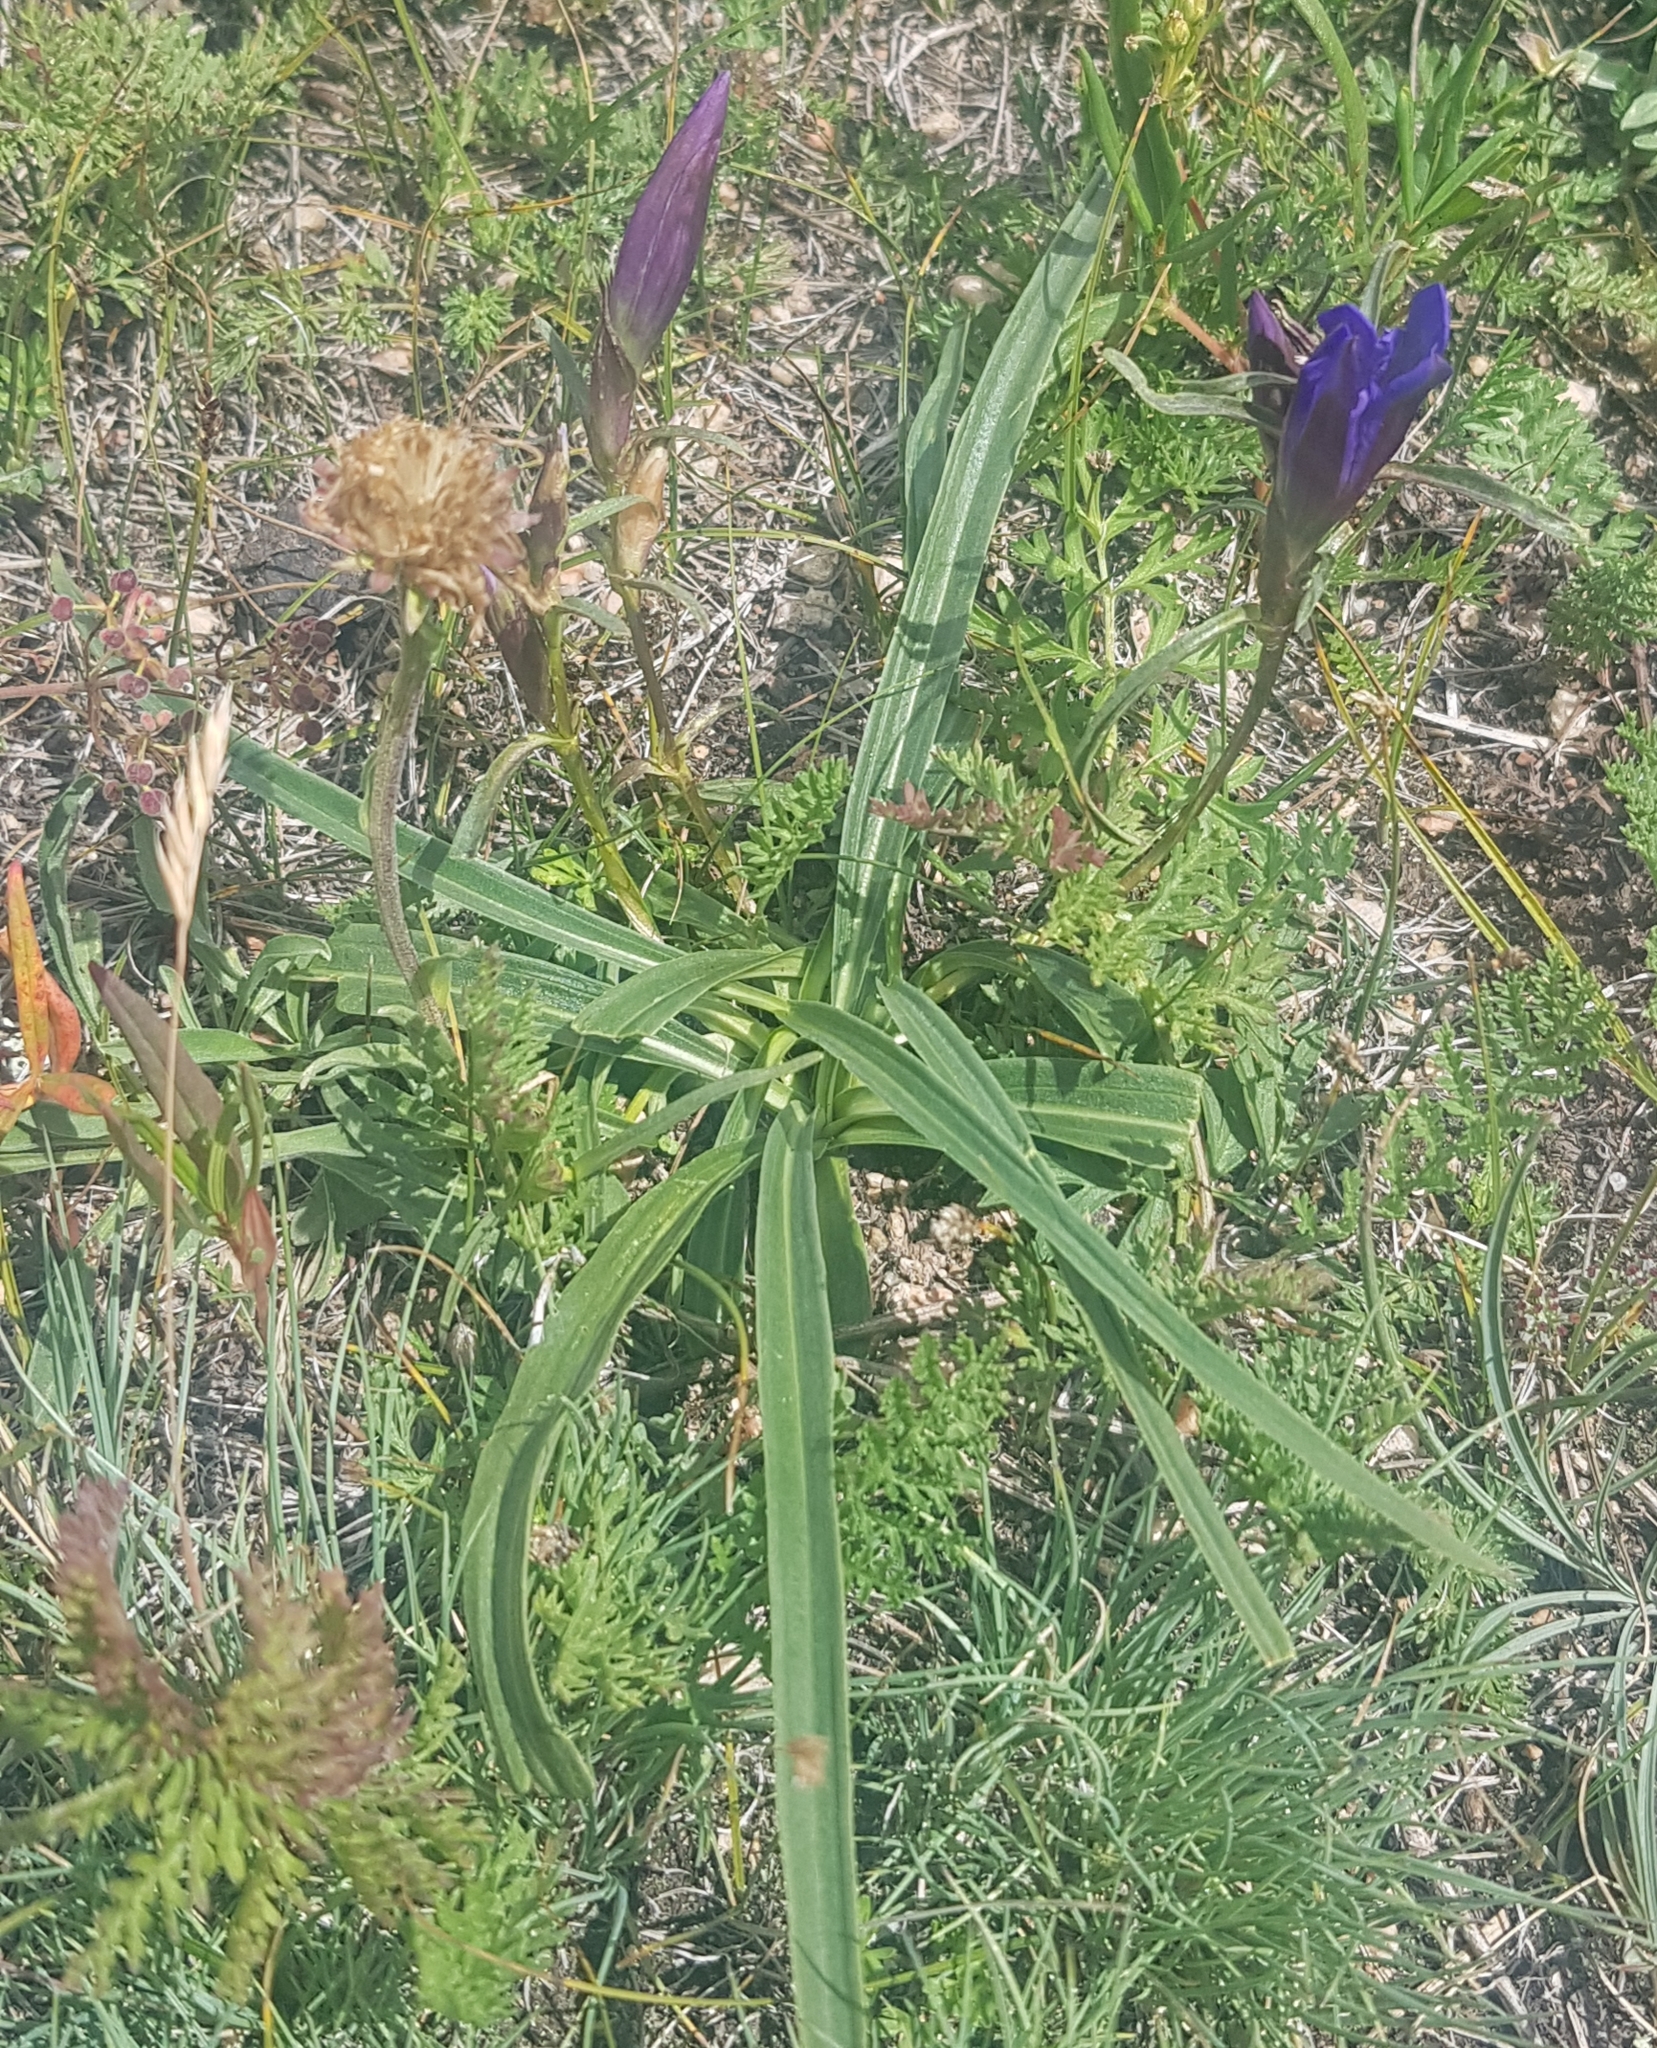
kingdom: Plantae
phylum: Tracheophyta
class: Magnoliopsida
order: Gentianales
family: Gentianaceae
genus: Gentiana
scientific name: Gentiana decumbens
